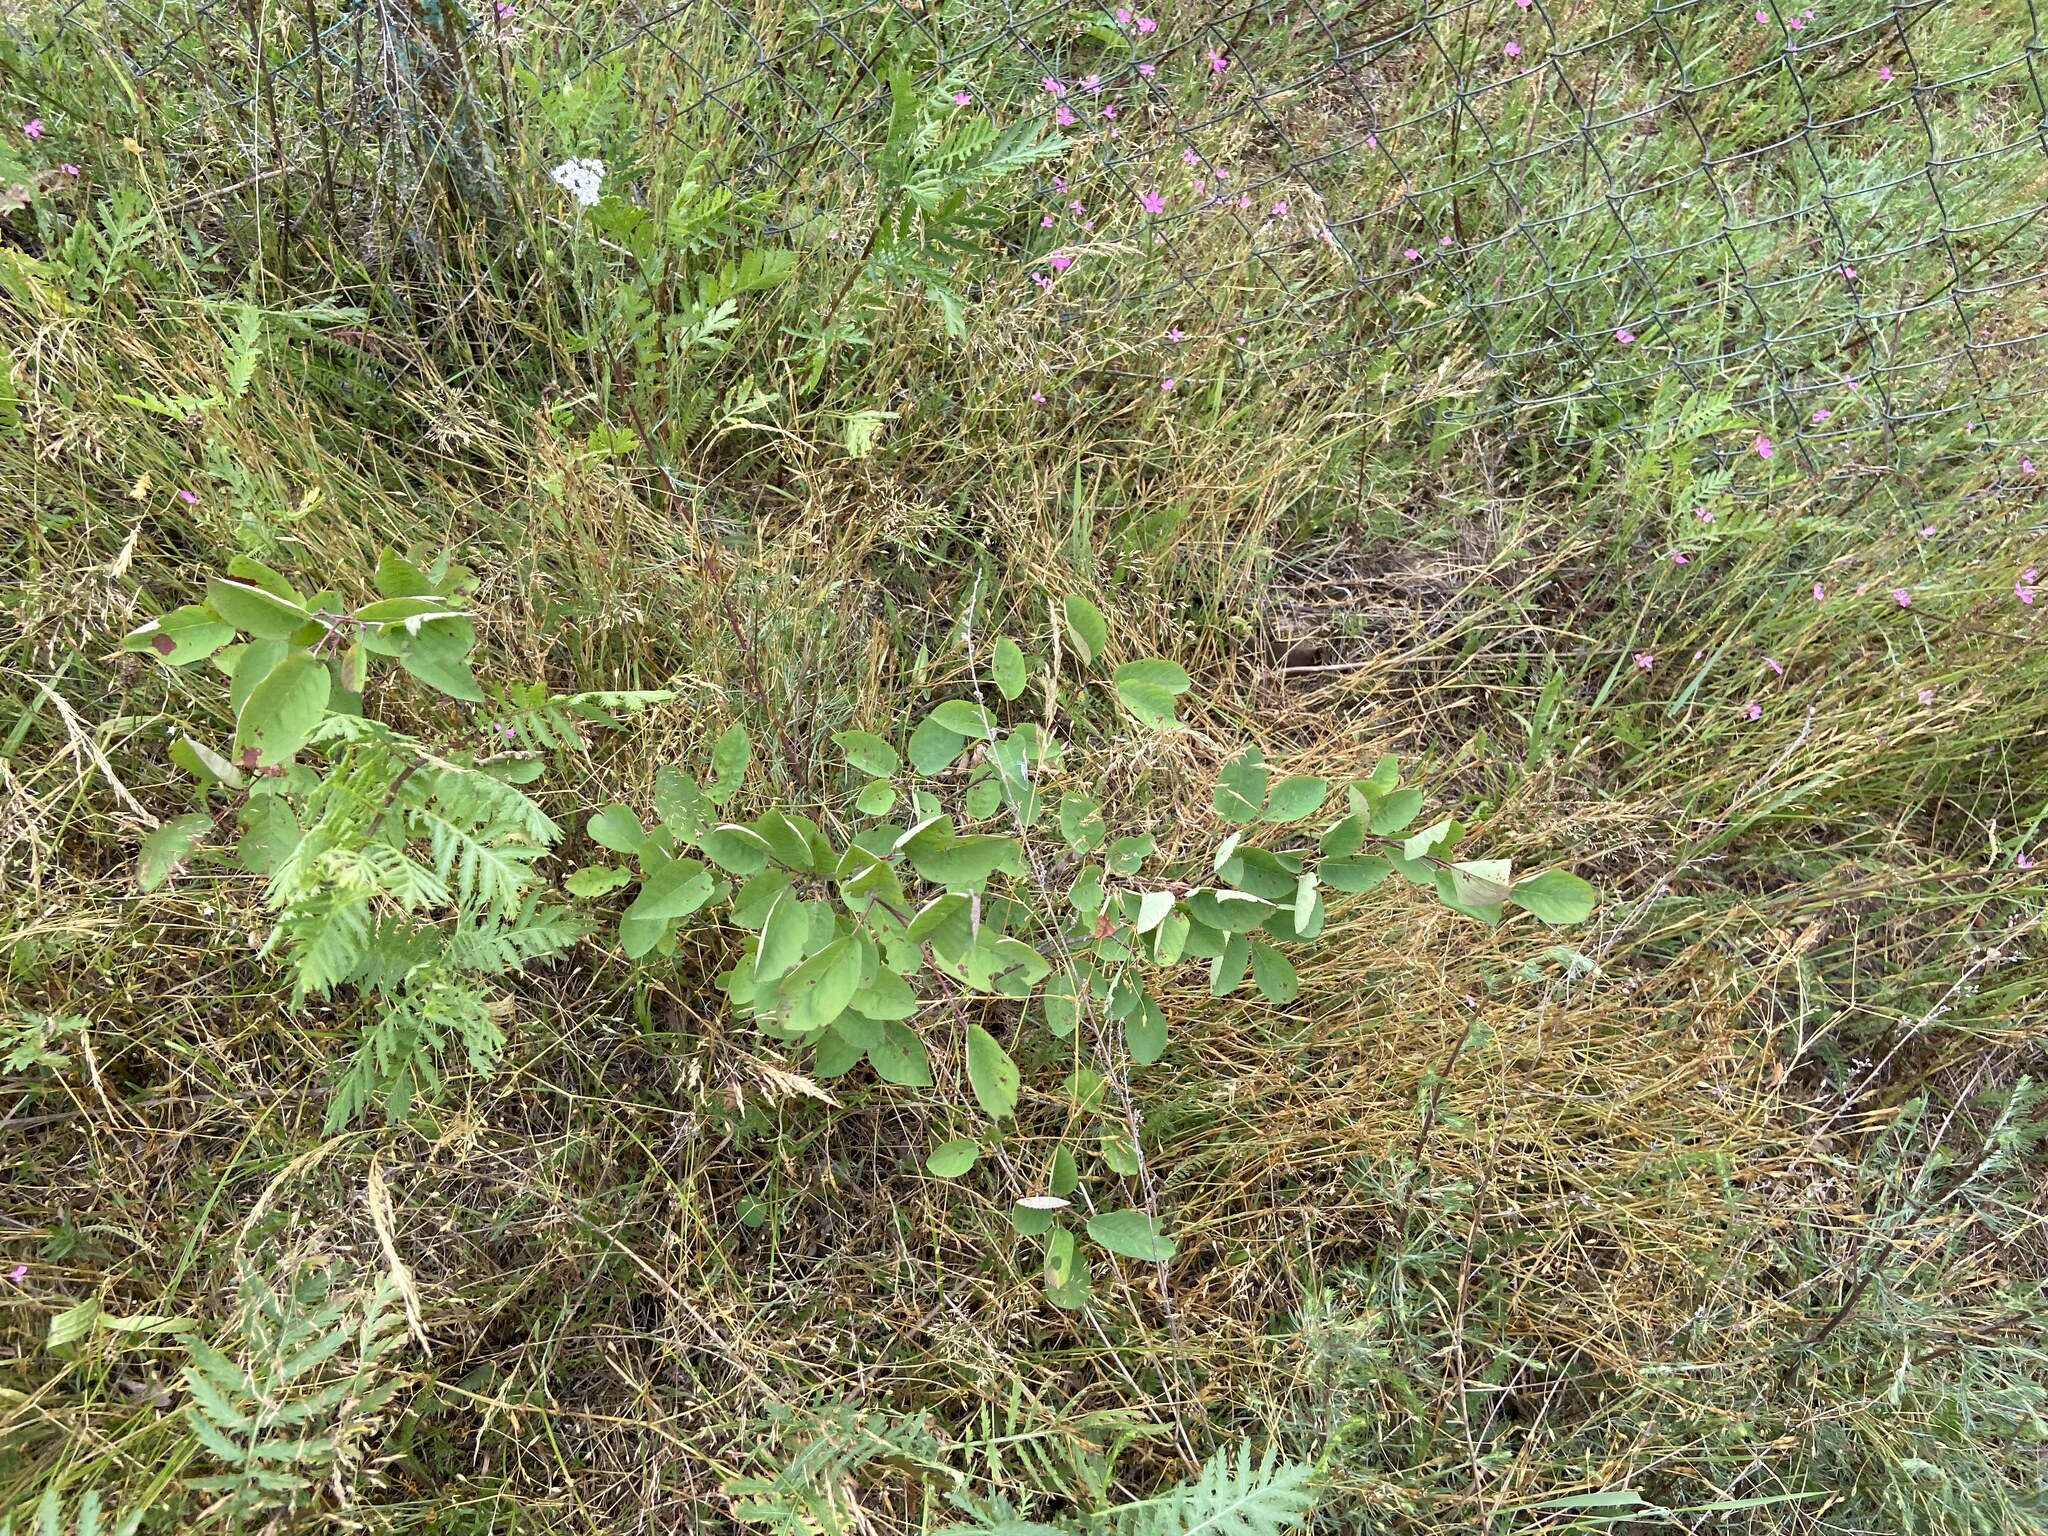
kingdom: Plantae
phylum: Tracheophyta
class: Magnoliopsida
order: Rosales
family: Rosaceae
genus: Amelanchier
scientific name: Amelanchier
